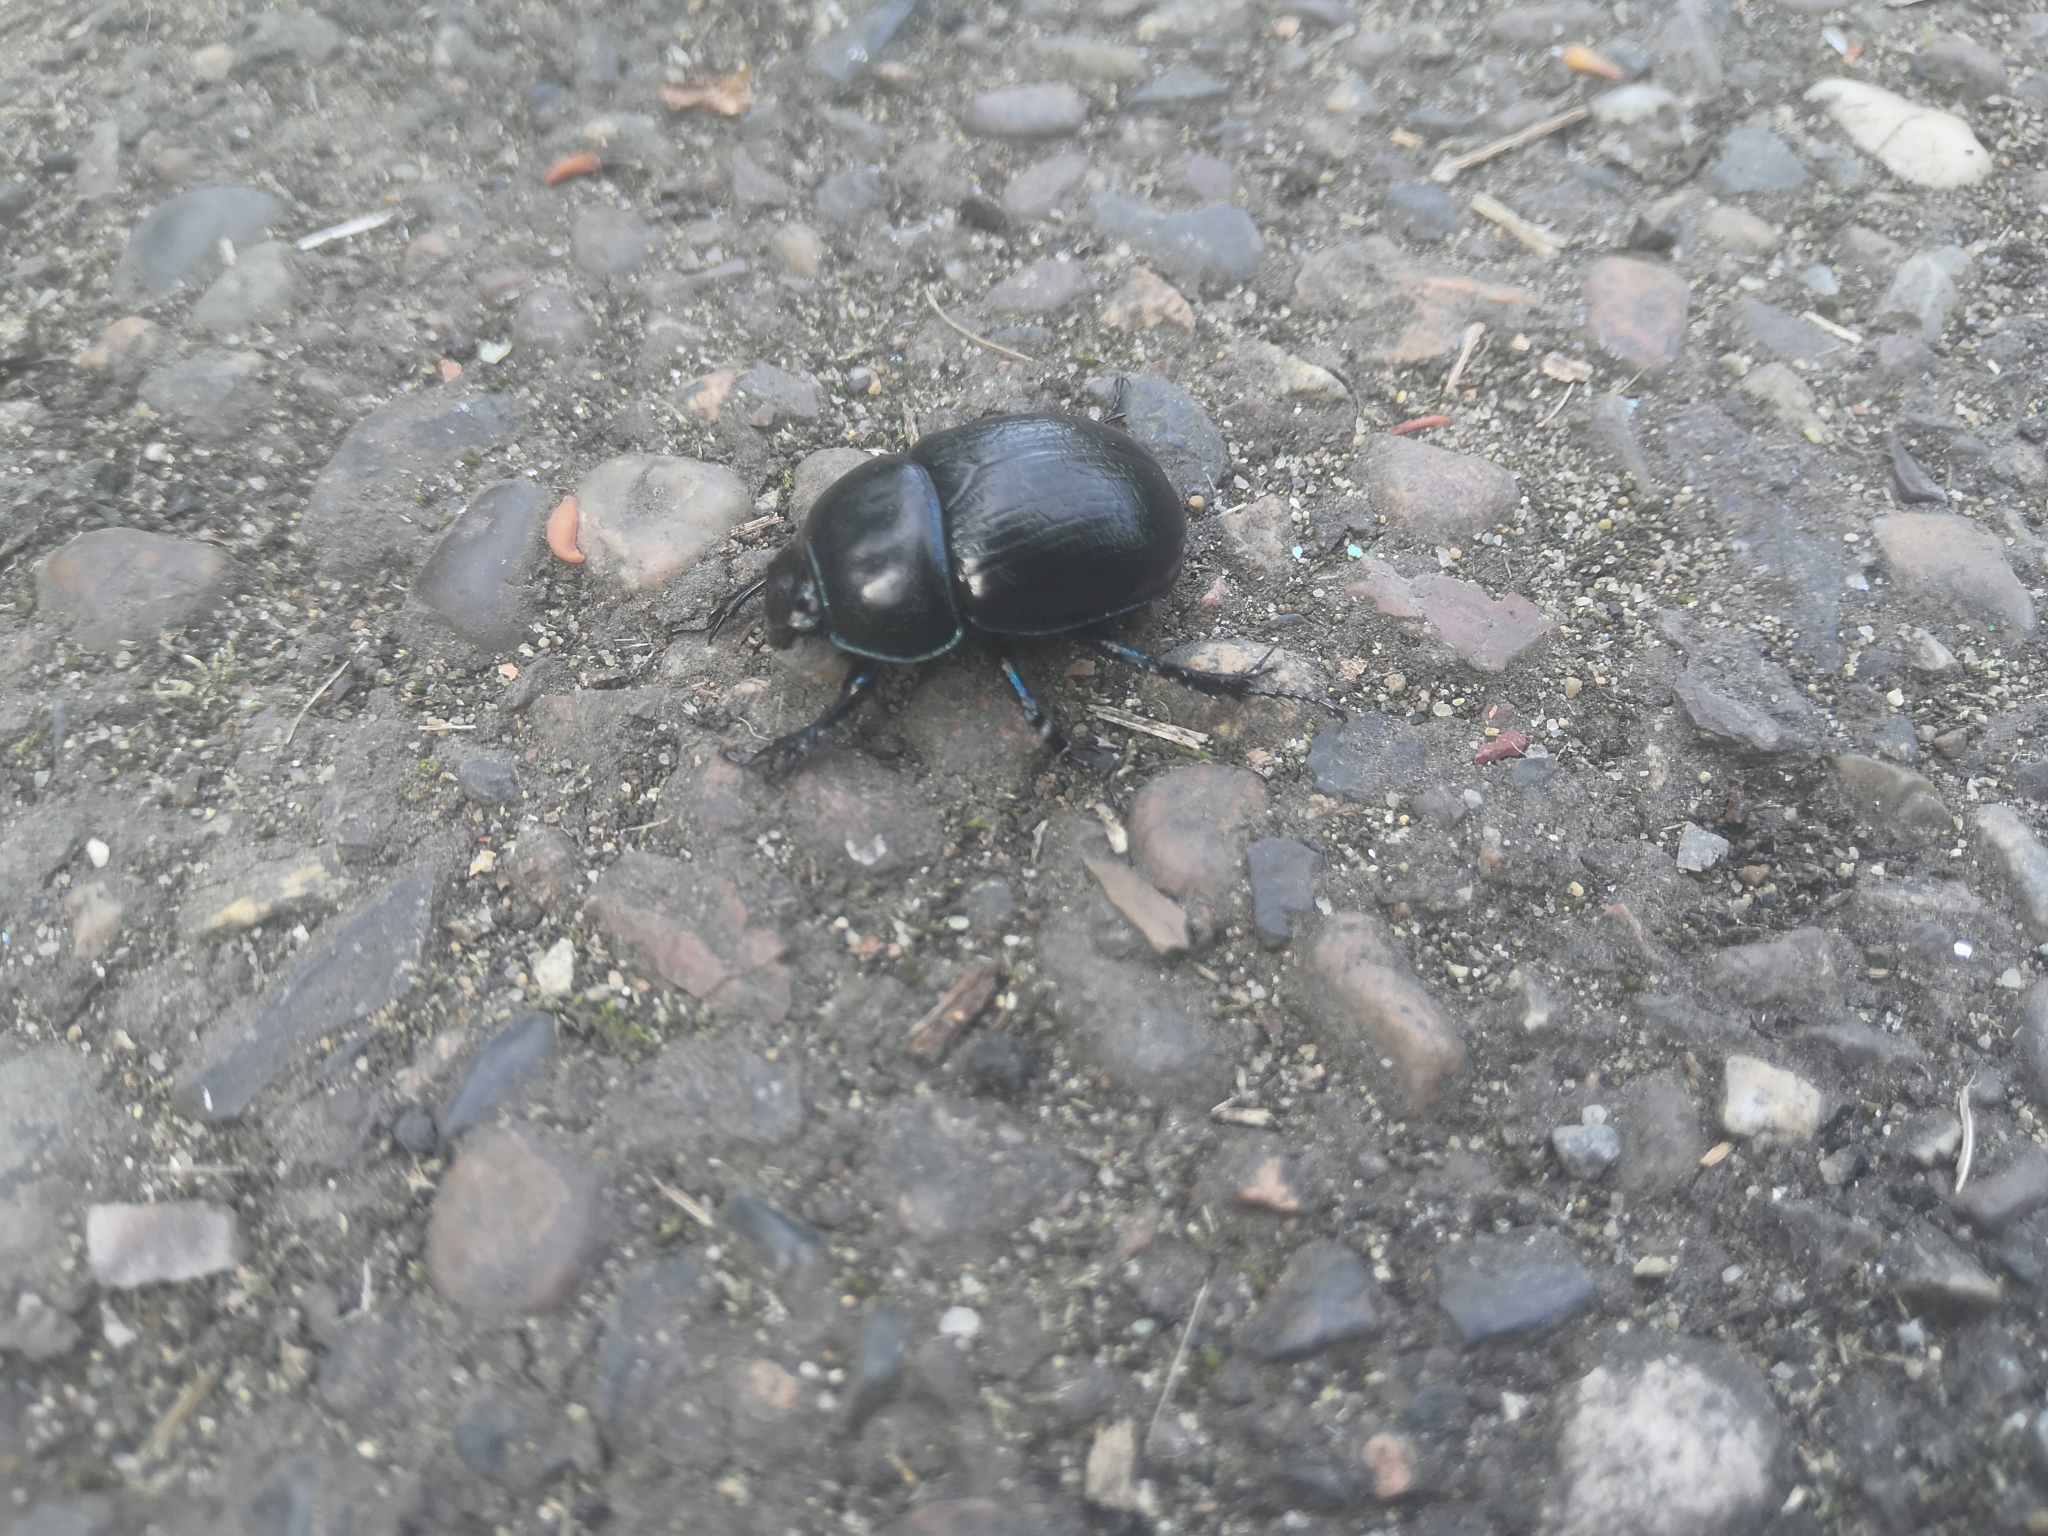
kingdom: Animalia
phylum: Arthropoda
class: Insecta
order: Coleoptera
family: Geotrupidae
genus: Anoplotrupes
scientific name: Anoplotrupes stercorosus
